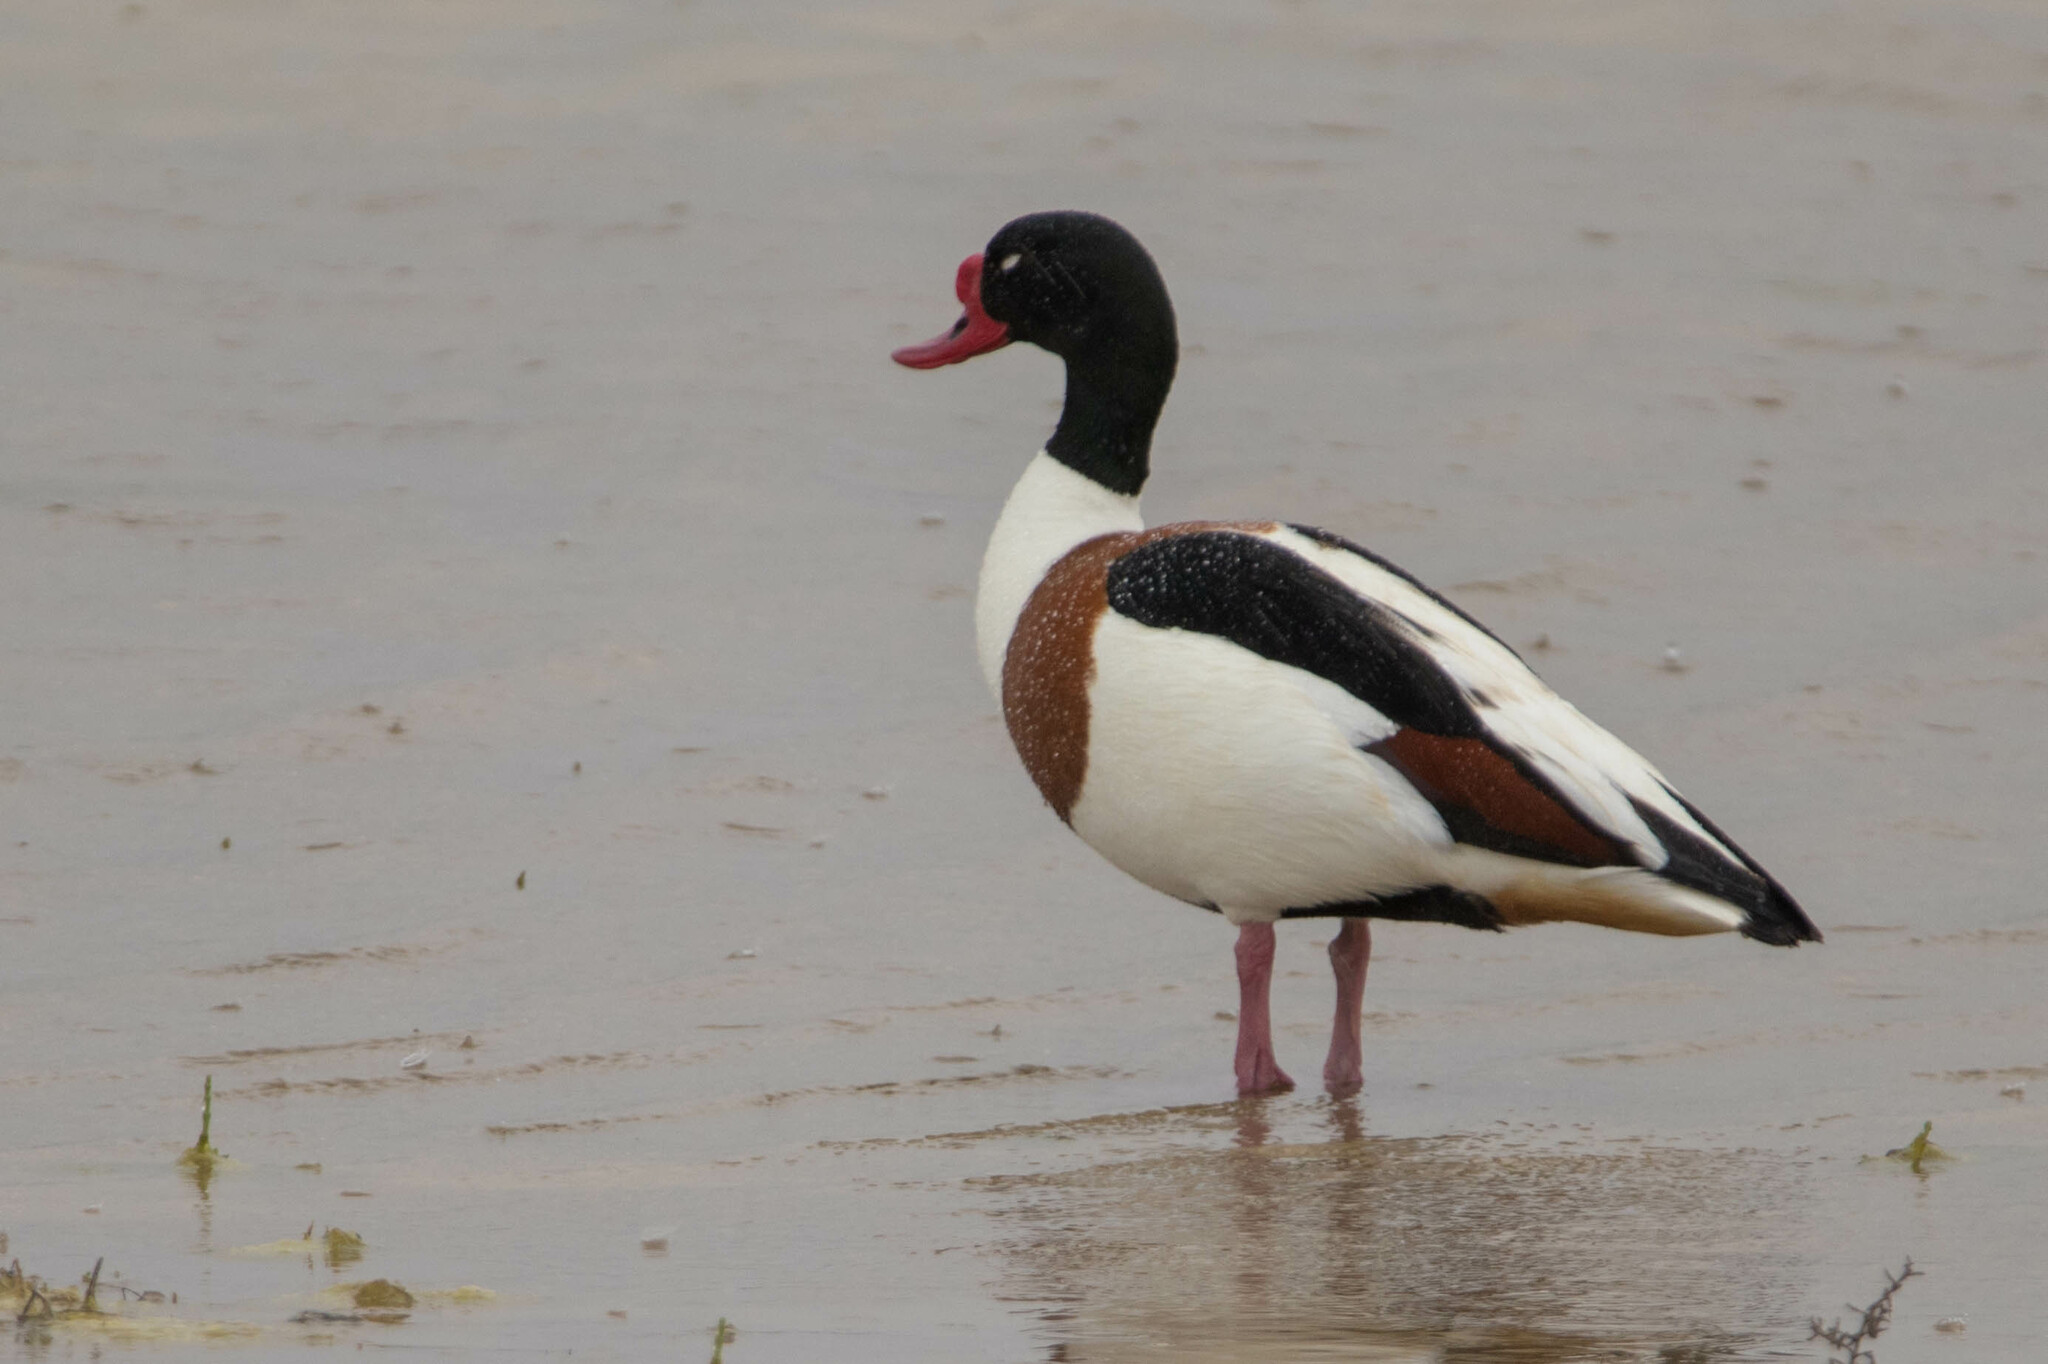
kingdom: Animalia
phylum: Chordata
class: Aves
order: Anseriformes
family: Anatidae
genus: Tadorna
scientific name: Tadorna tadorna
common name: Common shelduck
